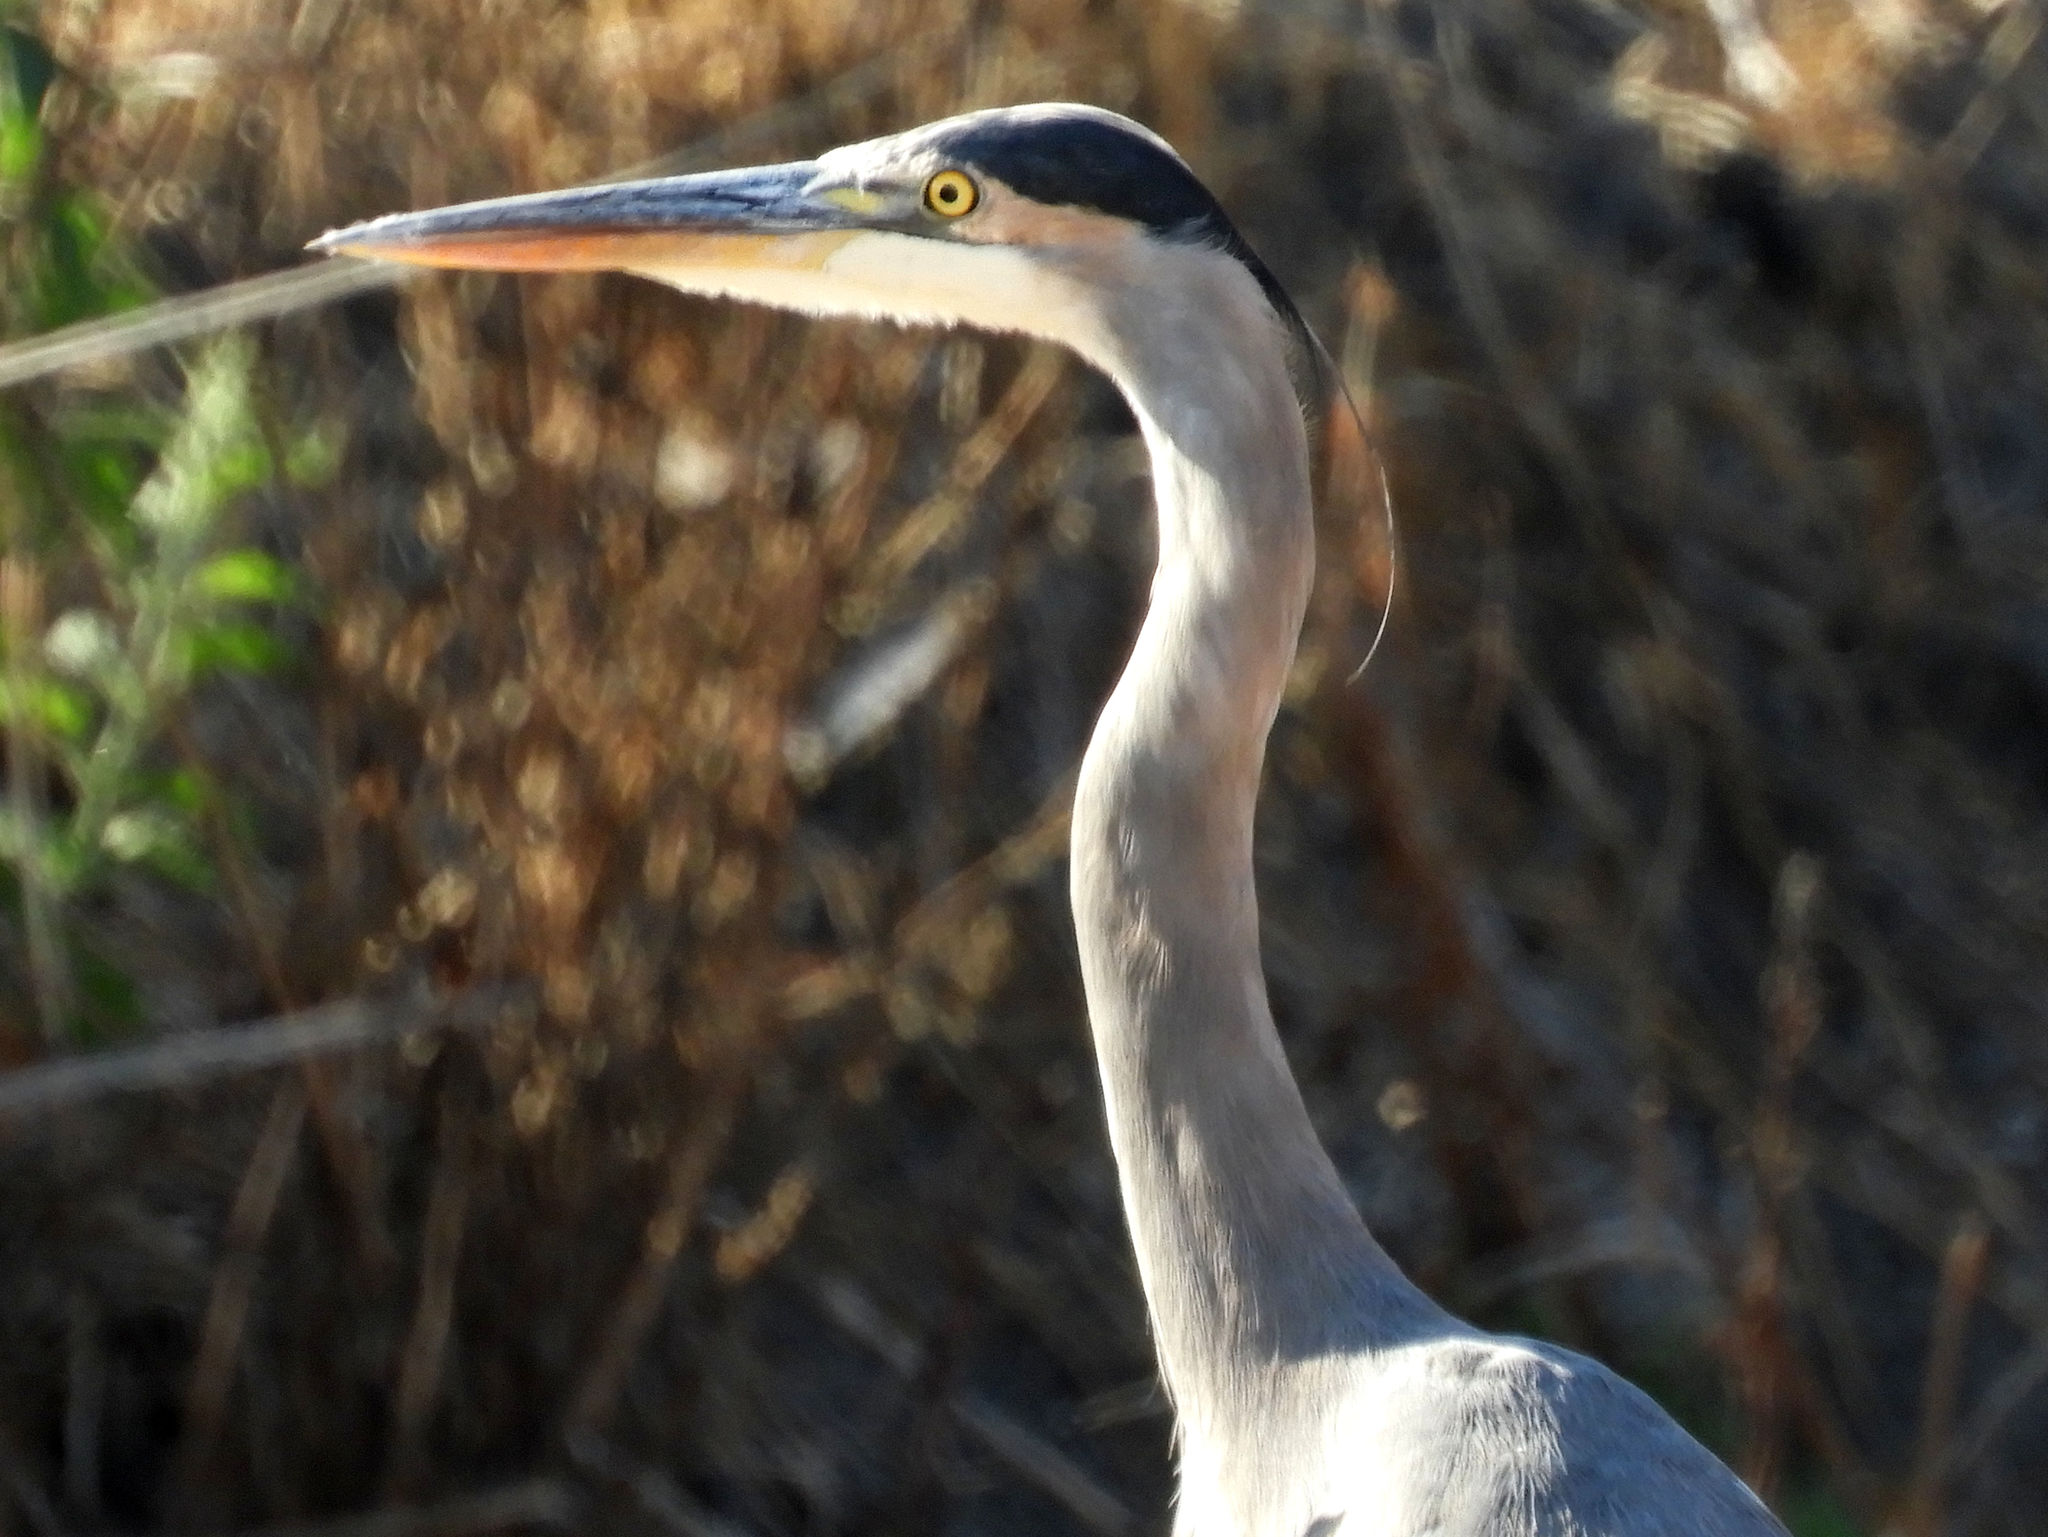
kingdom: Animalia
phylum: Chordata
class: Aves
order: Pelecaniformes
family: Ardeidae
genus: Ardea
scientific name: Ardea herodias
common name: Great blue heron
